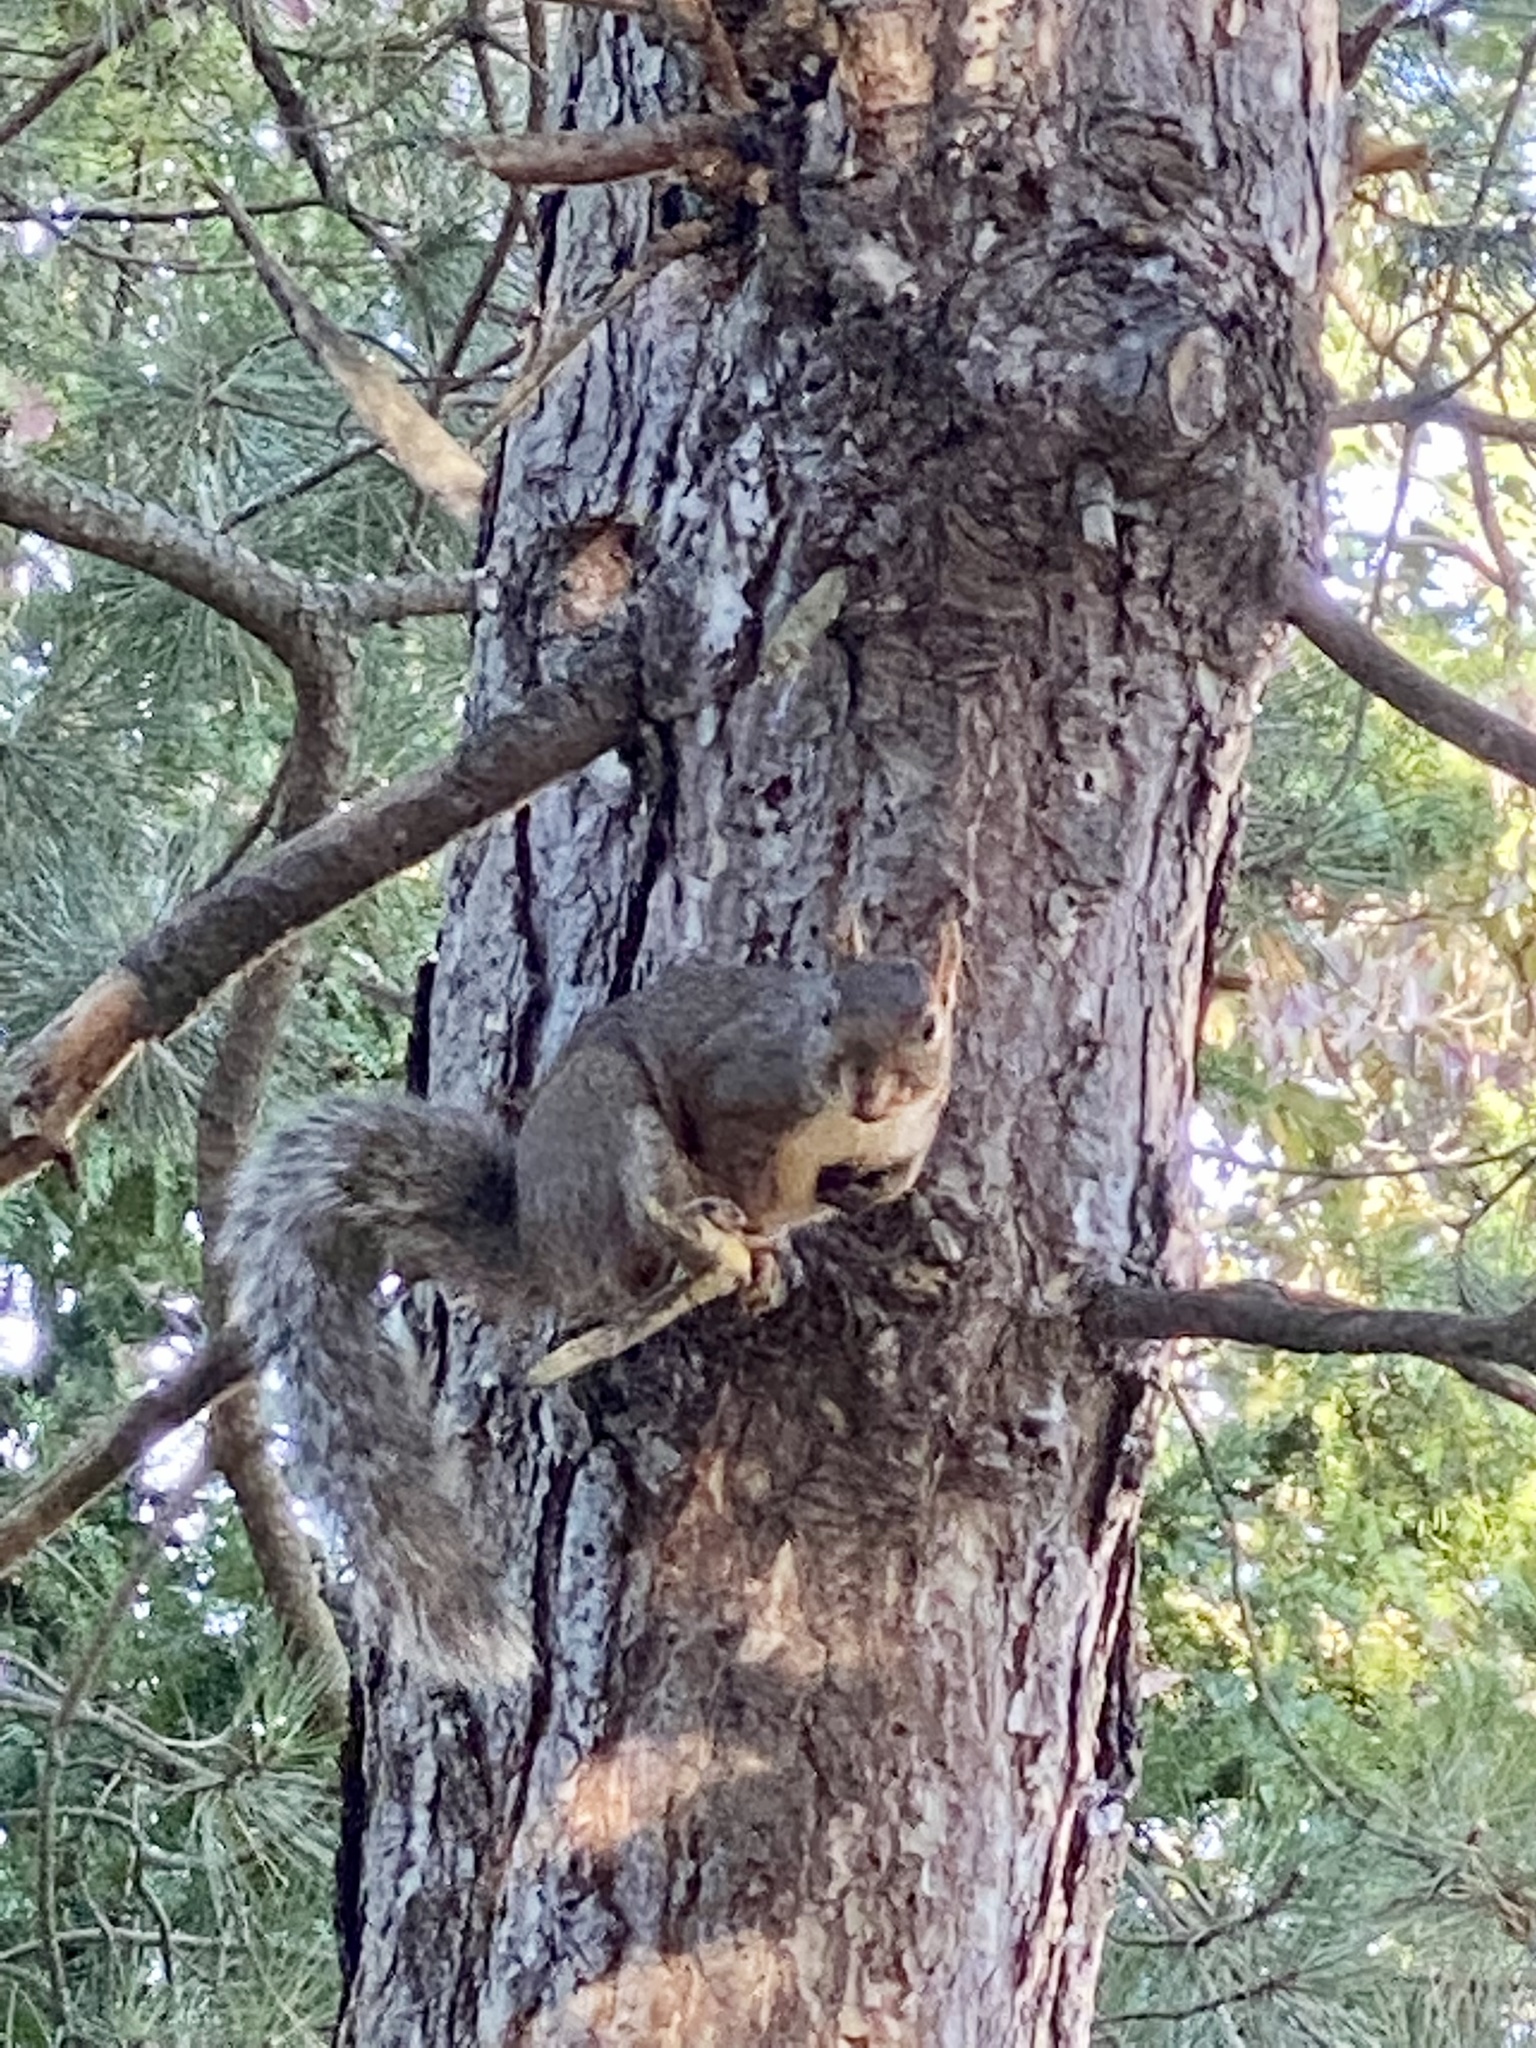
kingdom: Animalia
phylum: Chordata
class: Mammalia
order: Rodentia
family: Sciuridae
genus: Sciurus
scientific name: Sciurus carolinensis
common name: Eastern gray squirrel
